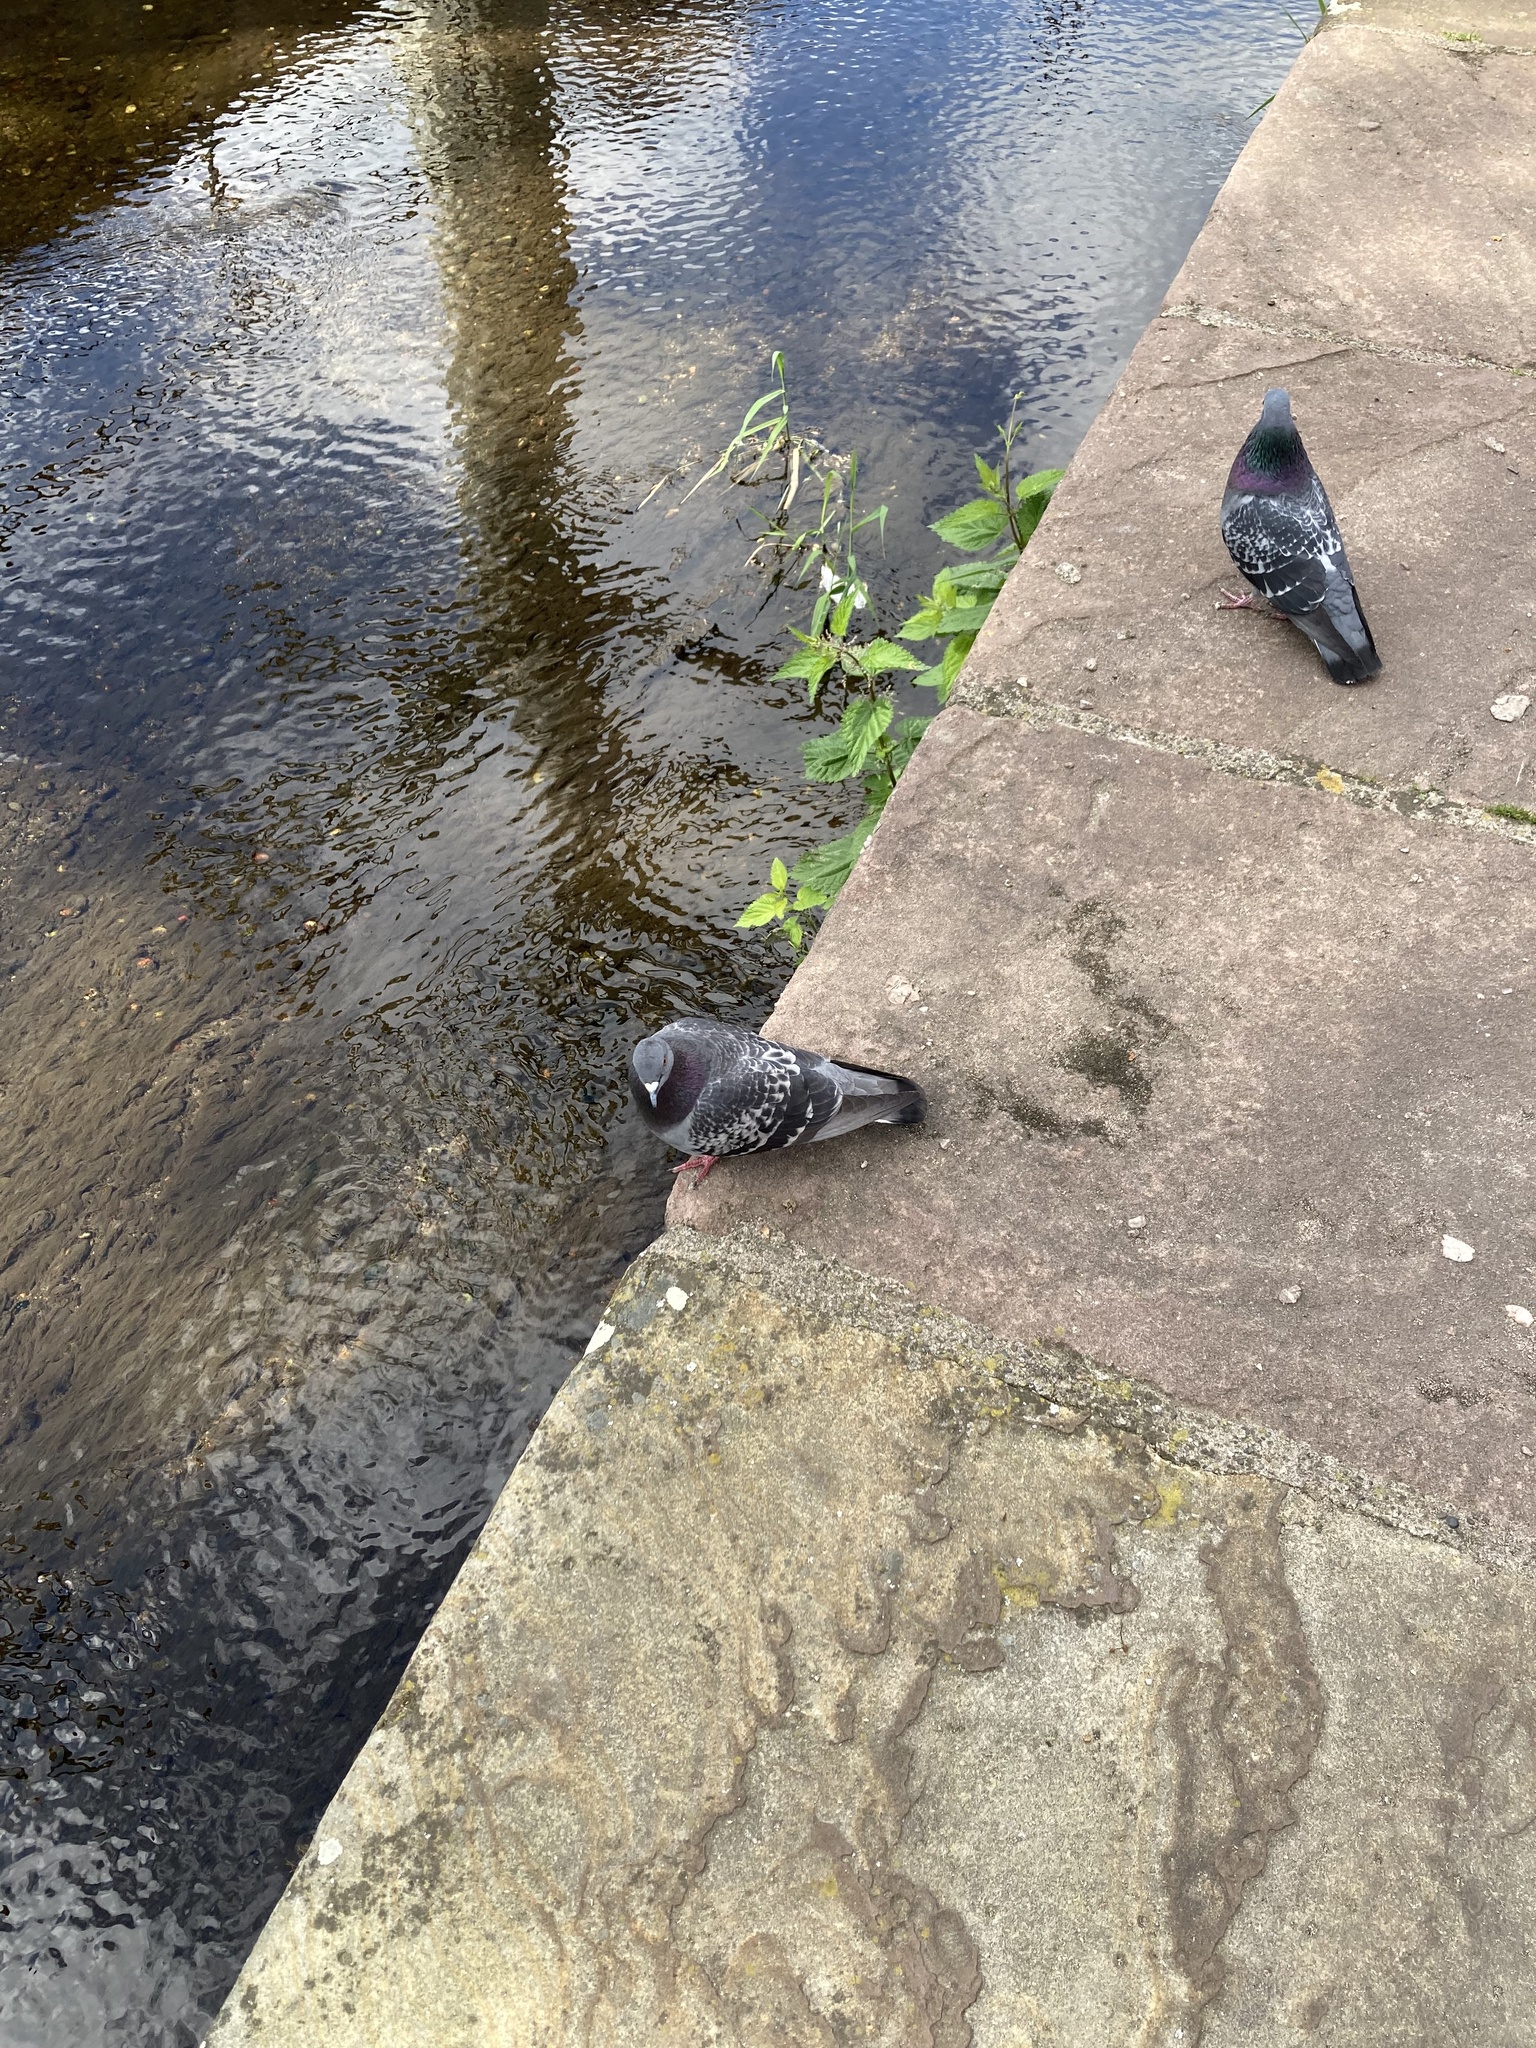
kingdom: Animalia
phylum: Chordata
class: Aves
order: Columbiformes
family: Columbidae
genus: Columba
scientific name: Columba livia
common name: Rock pigeon
